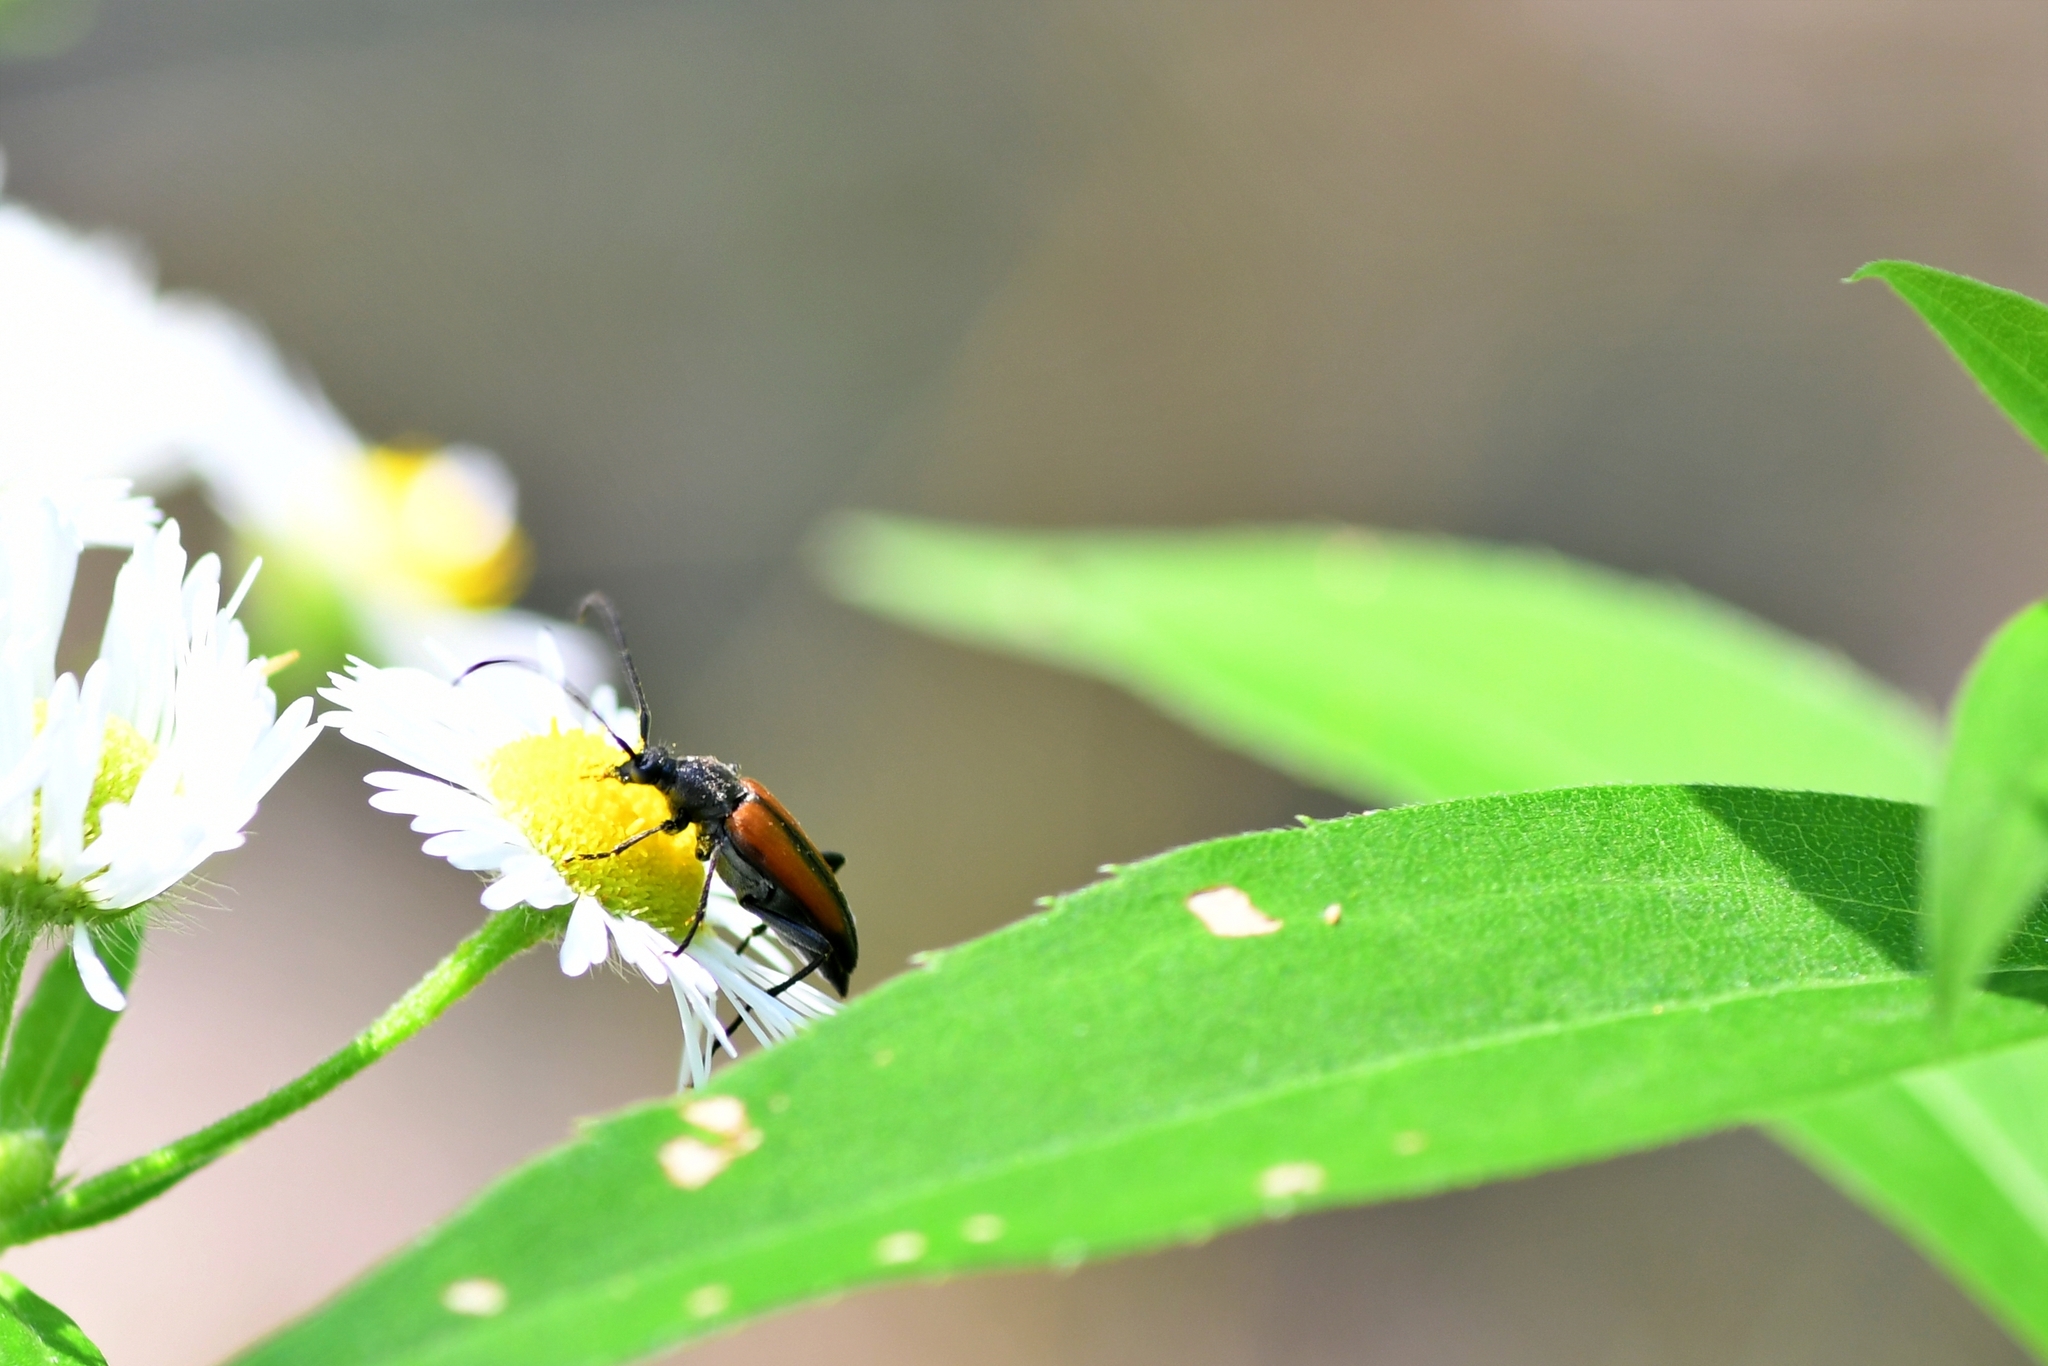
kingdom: Animalia
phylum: Arthropoda
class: Insecta
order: Coleoptera
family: Cerambycidae
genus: Stenurella
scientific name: Stenurella melanura
